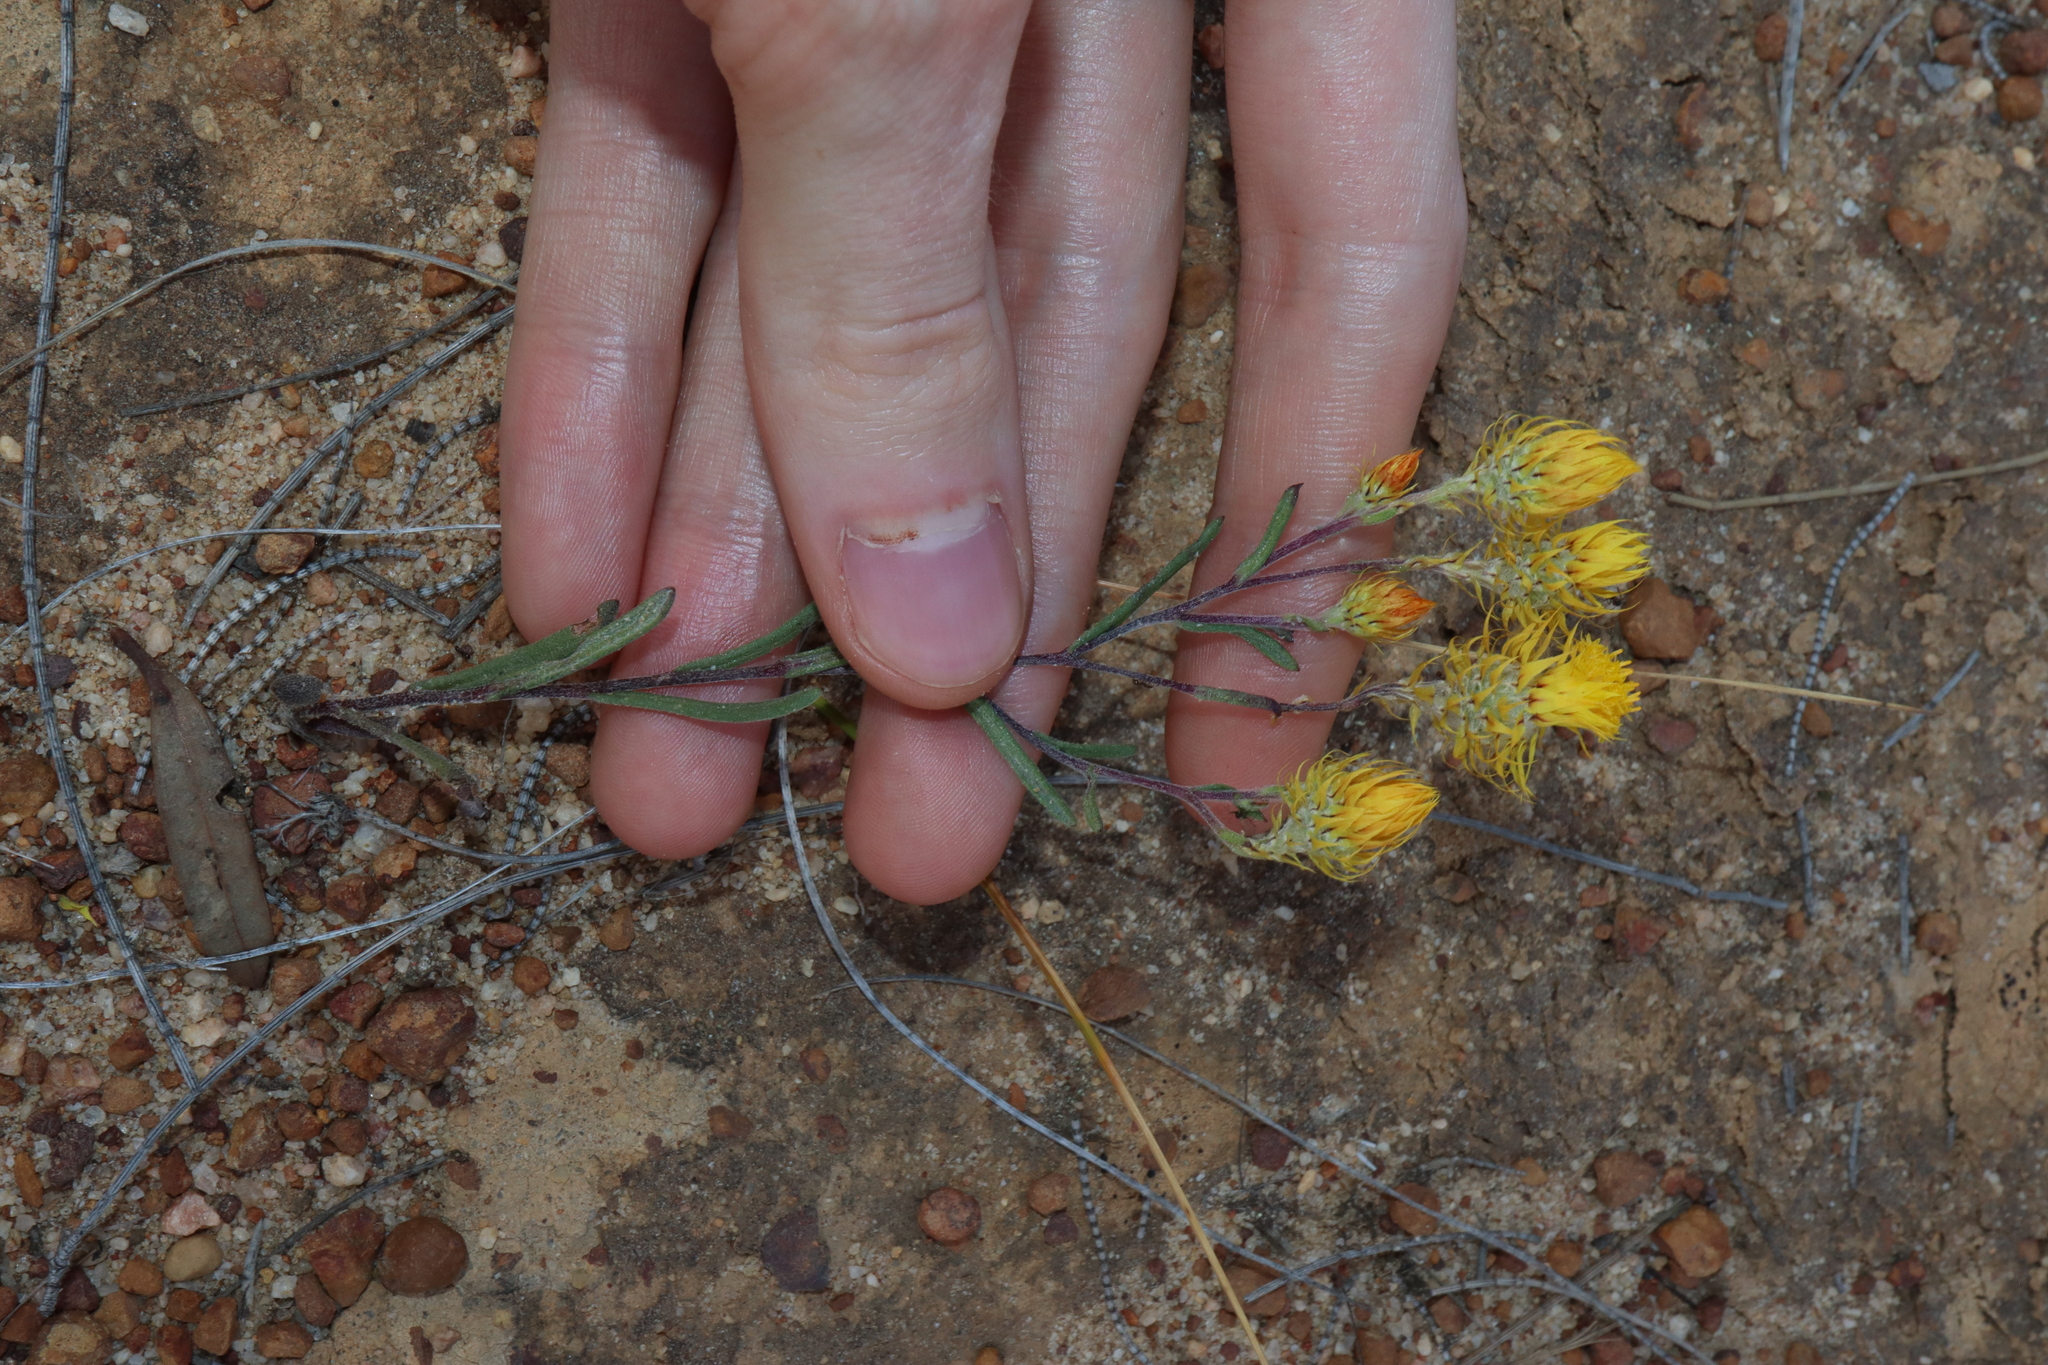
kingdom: Plantae
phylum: Tracheophyta
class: Magnoliopsida
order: Asterales
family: Asteraceae
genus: Waitzia
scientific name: Waitzia acuminata
